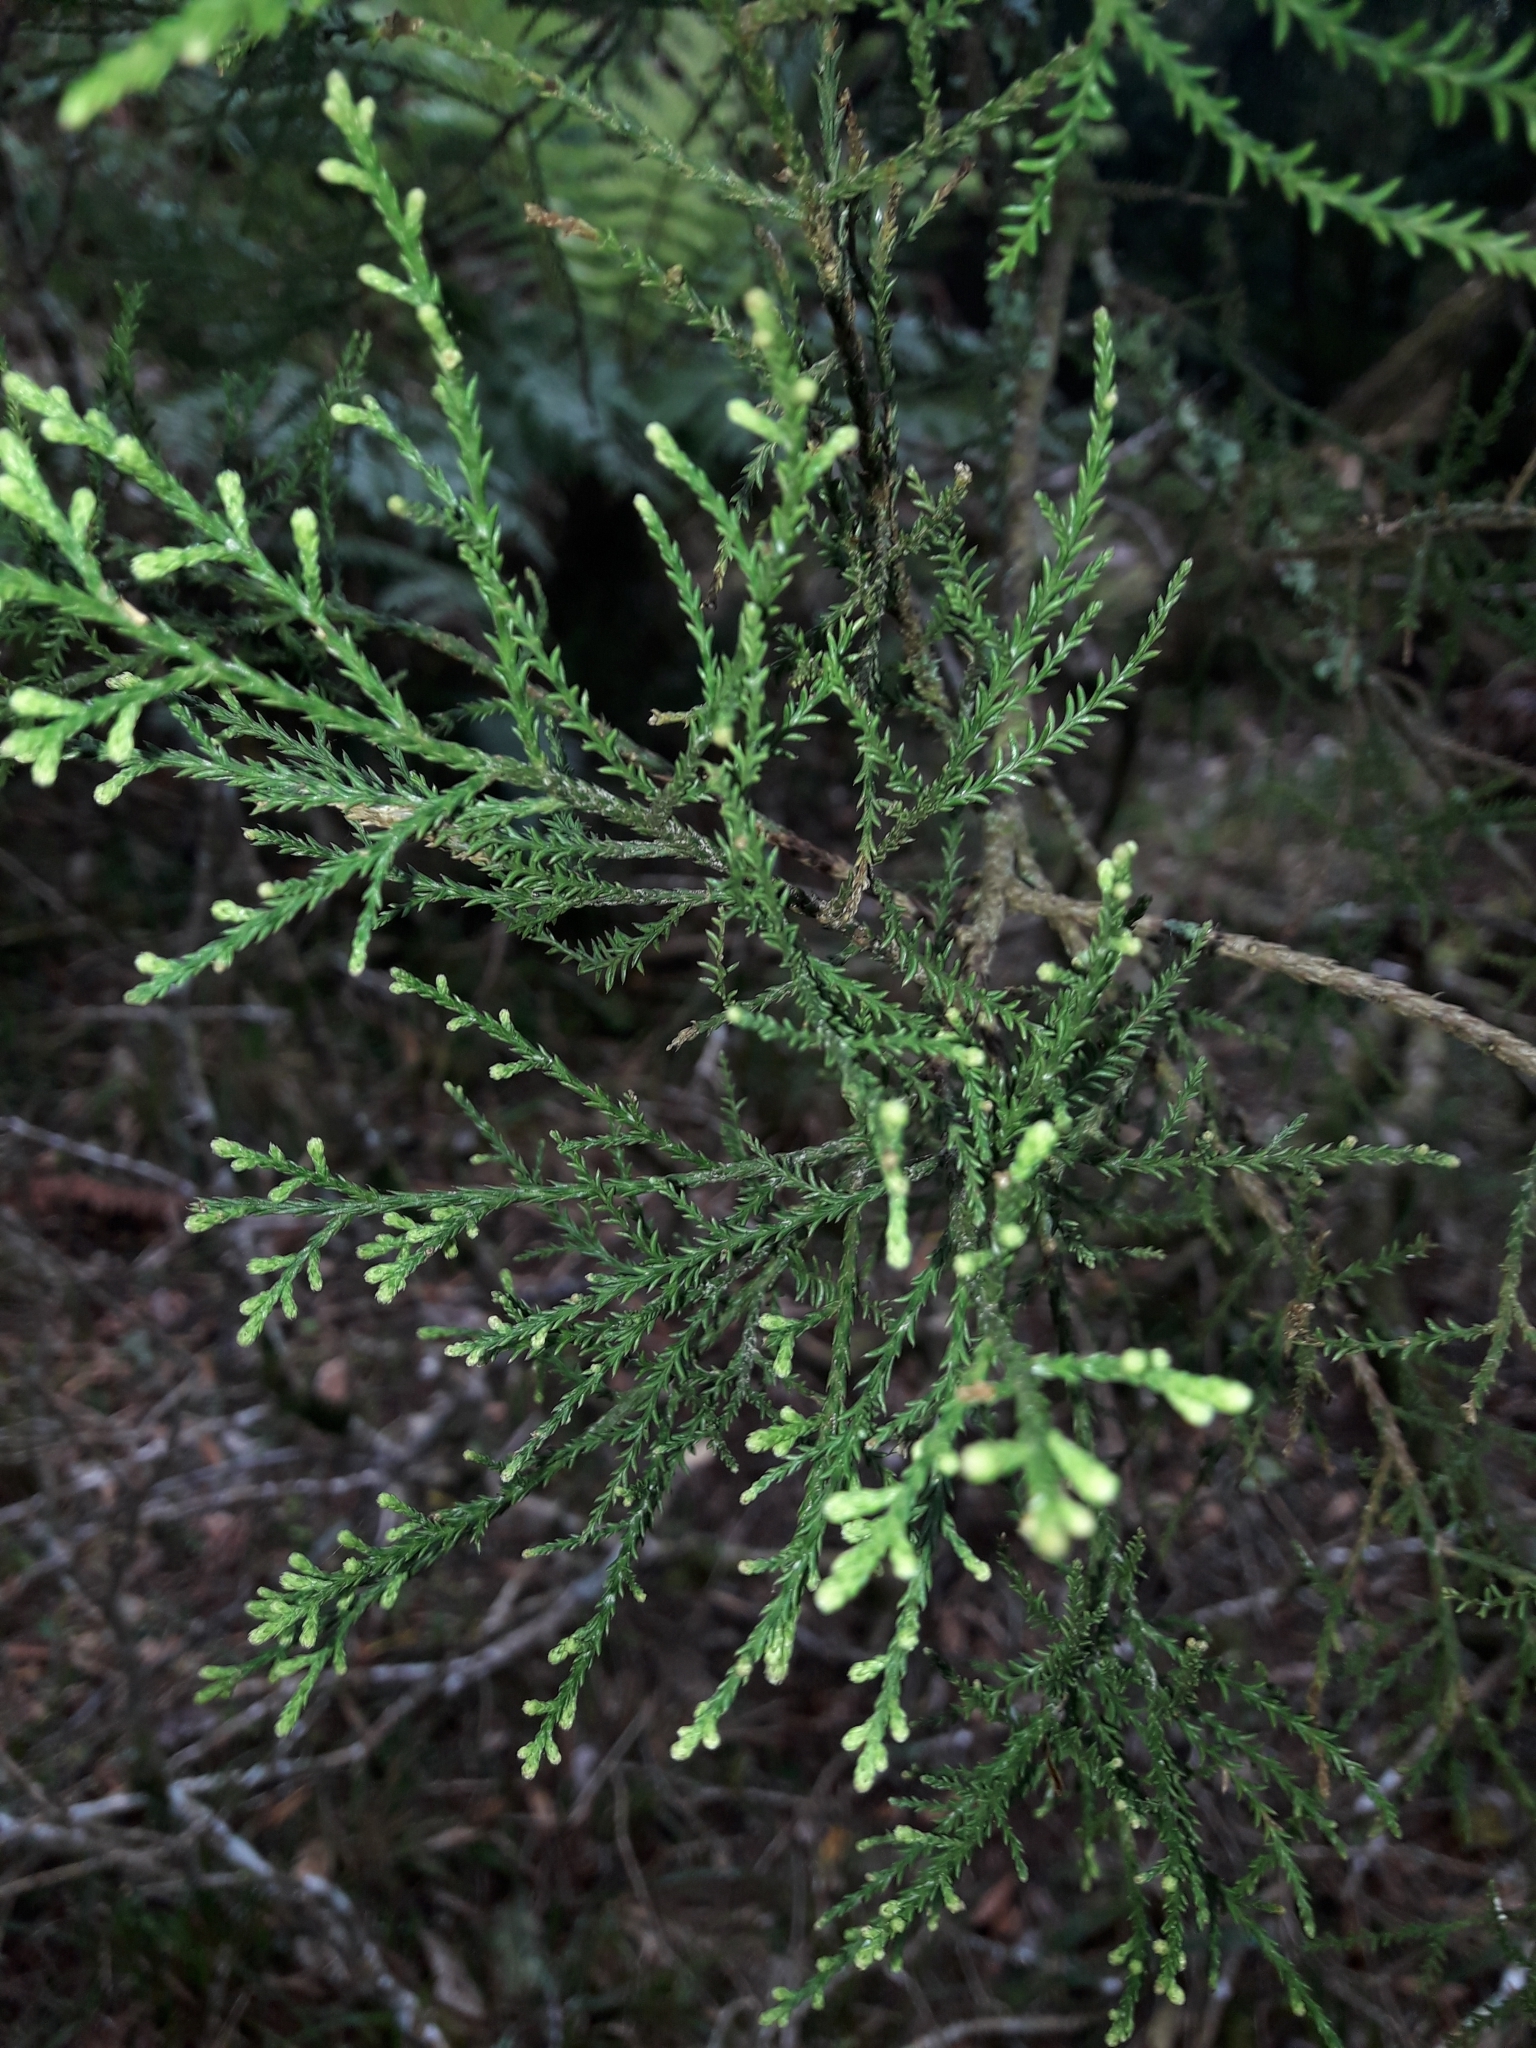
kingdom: Plantae
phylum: Tracheophyta
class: Pinopsida
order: Pinales
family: Podocarpaceae
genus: Dacrycarpus
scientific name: Dacrycarpus dacrydioides
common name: White pine
